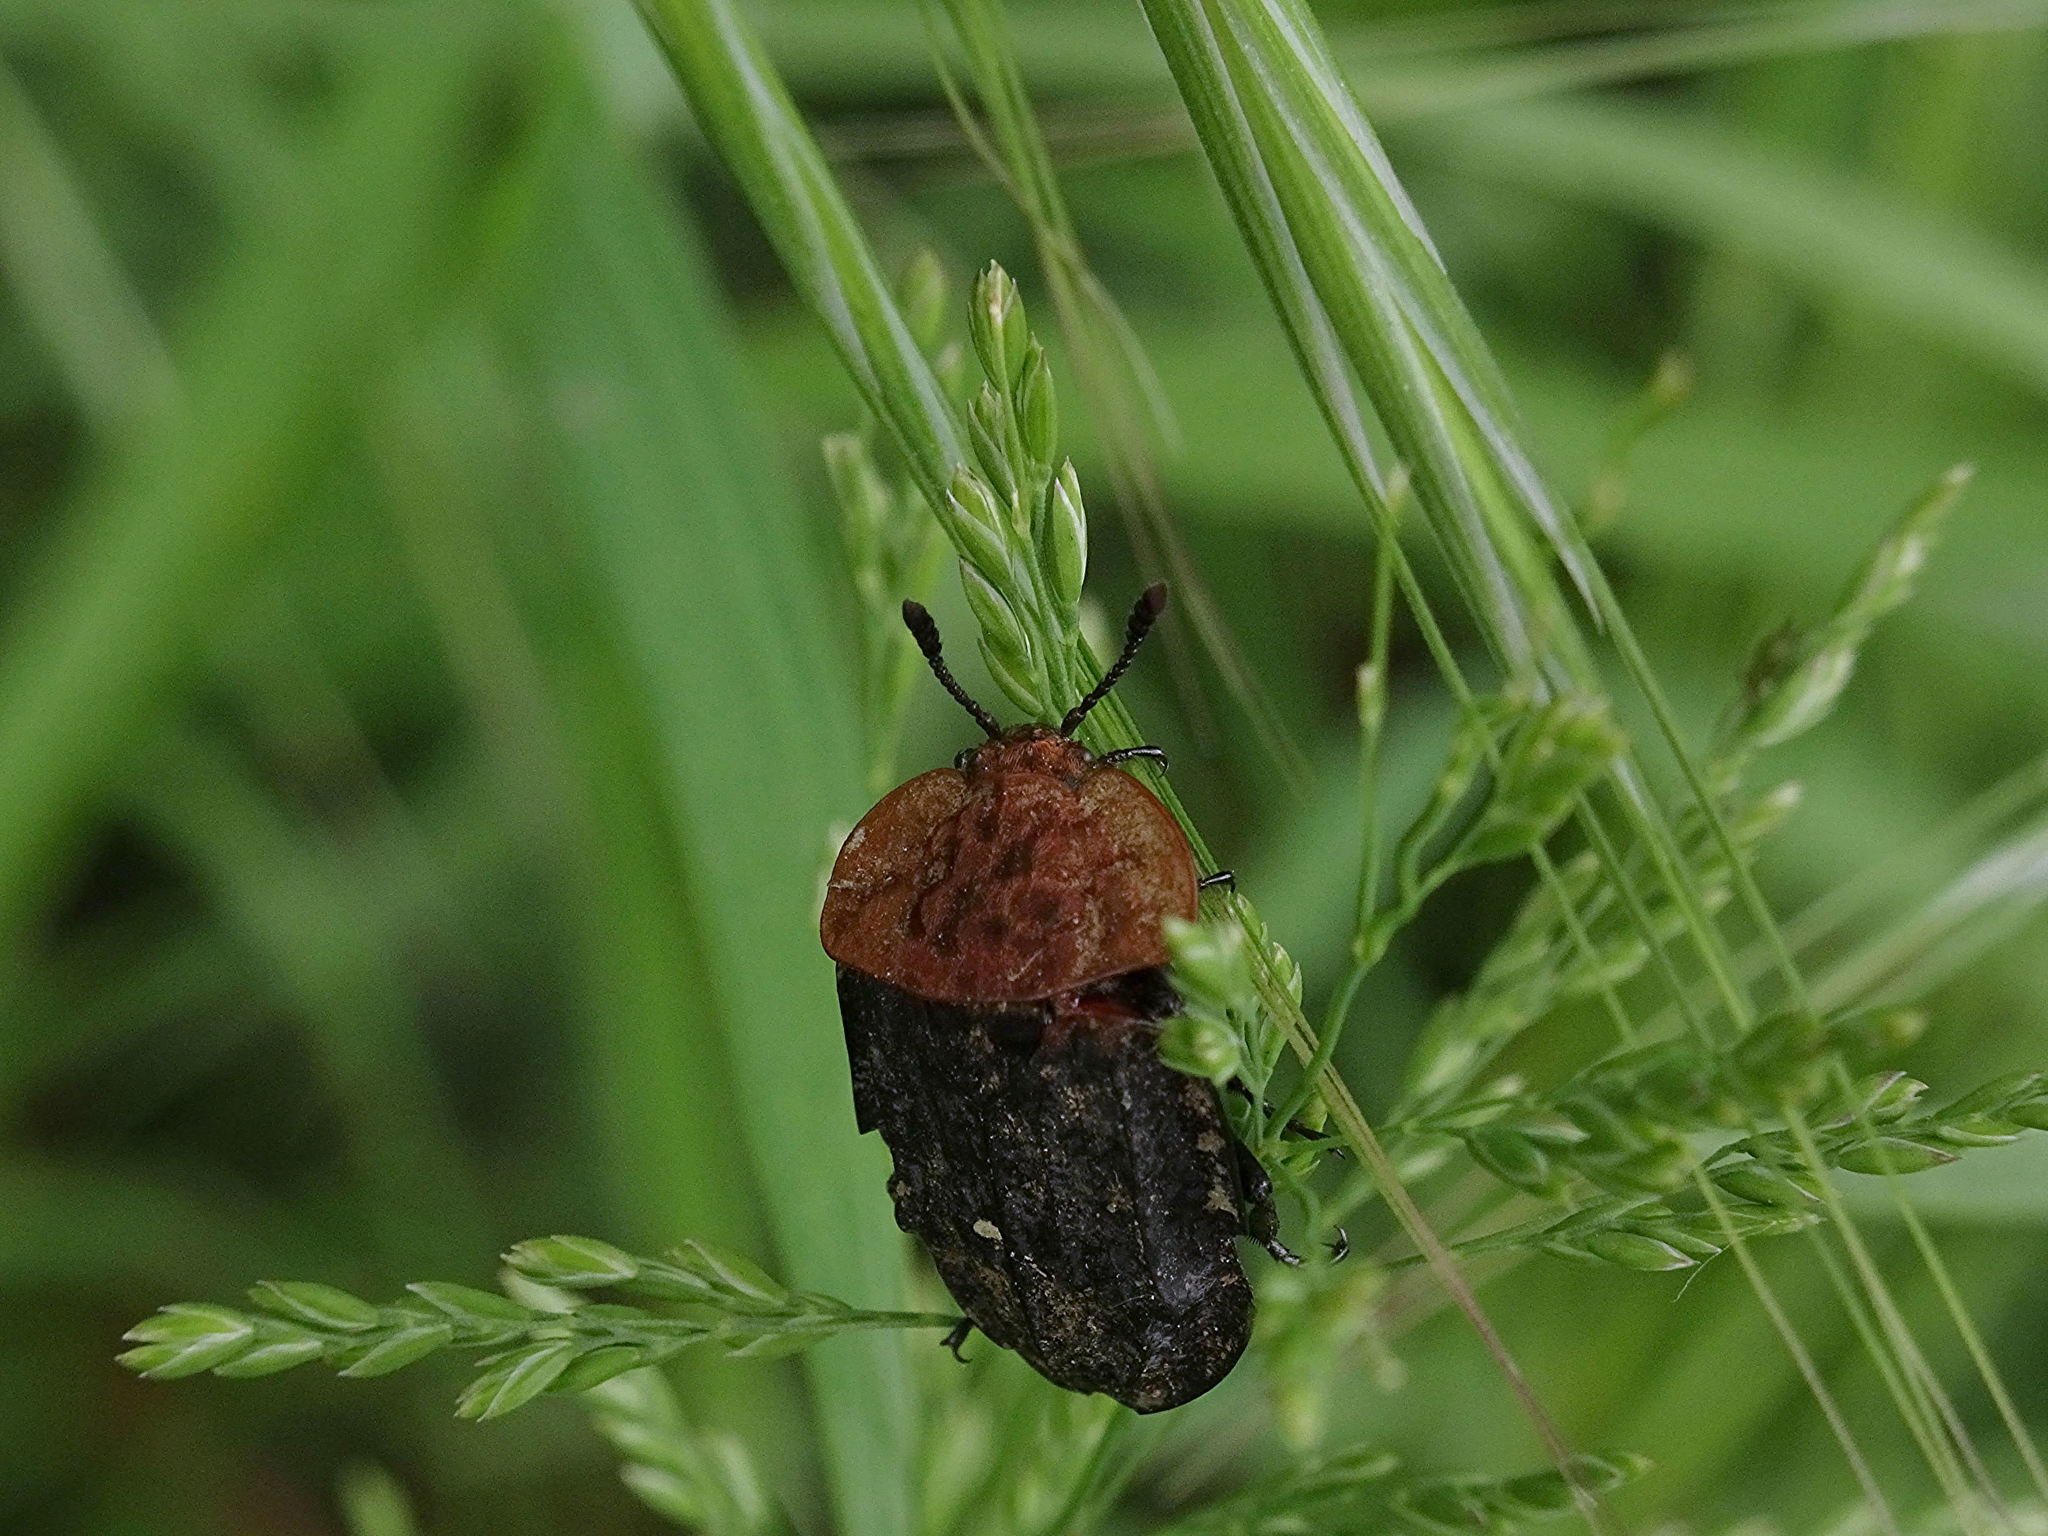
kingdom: Animalia
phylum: Arthropoda
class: Insecta
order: Coleoptera
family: Staphylinidae
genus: Oiceoptoma
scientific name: Oiceoptoma thoracicum
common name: Red-breasted carrion beetle
